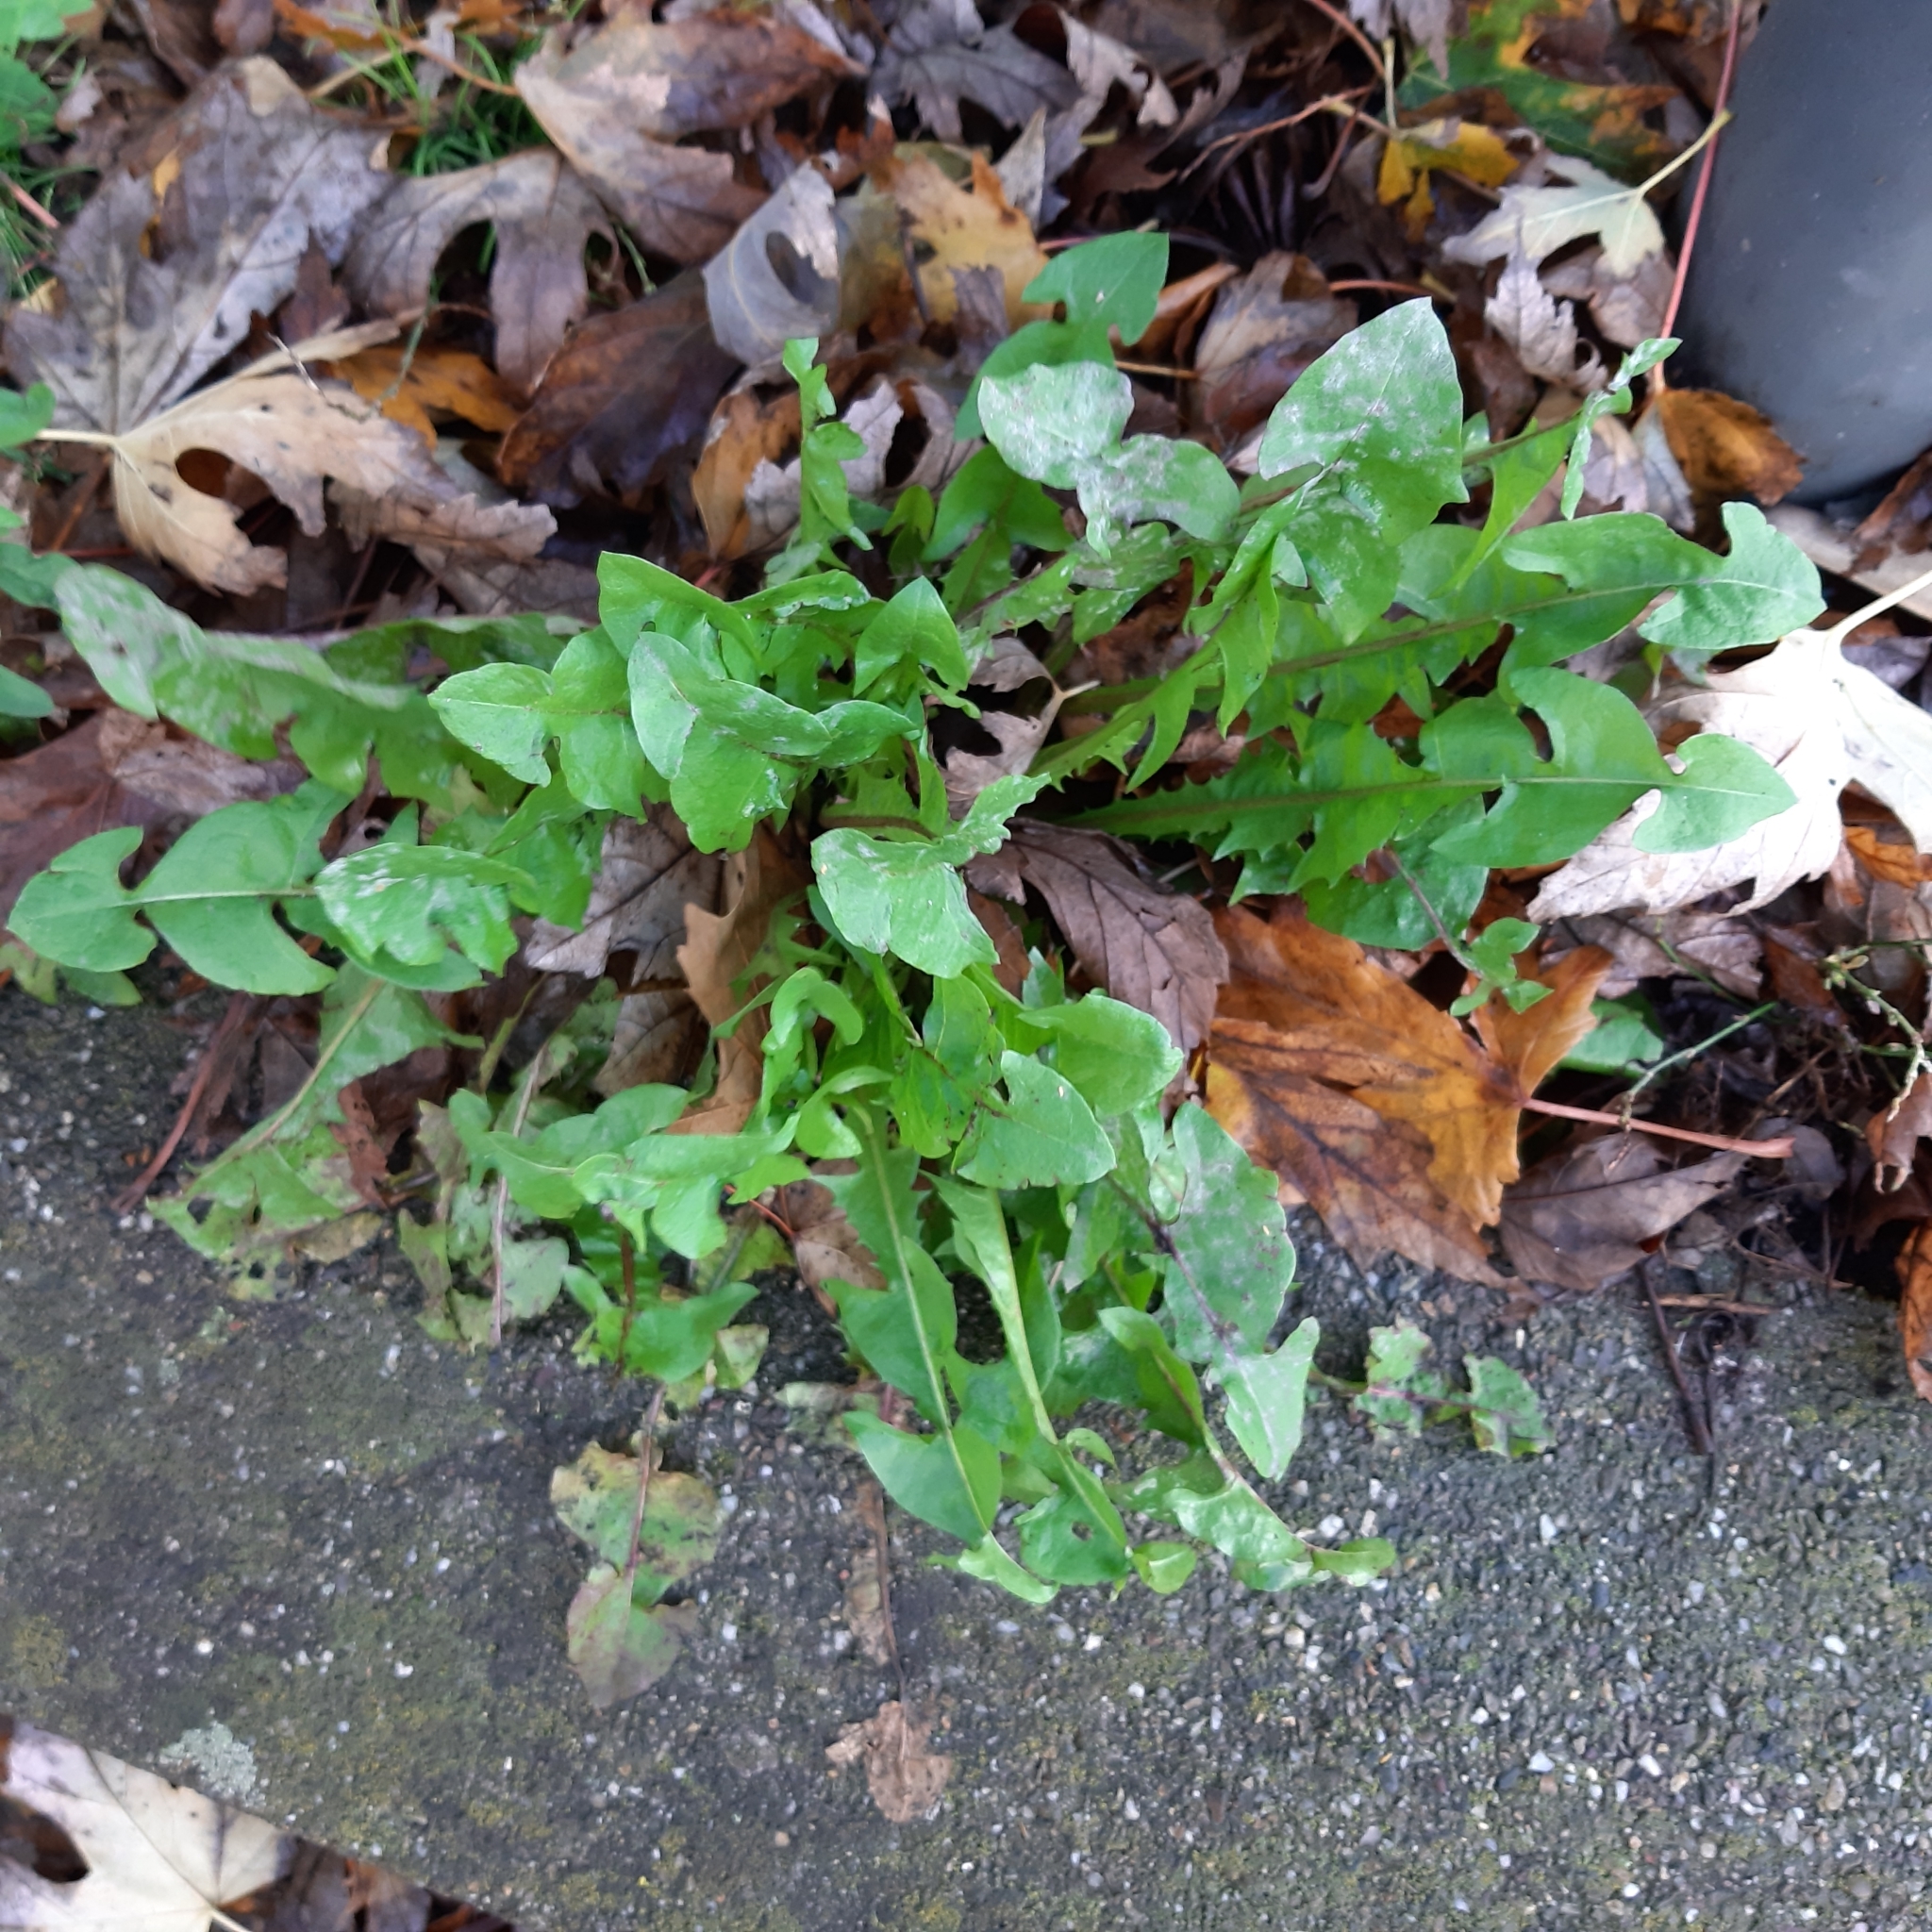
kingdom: Plantae
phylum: Tracheophyta
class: Magnoliopsida
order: Asterales
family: Asteraceae
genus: Taraxacum
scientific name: Taraxacum officinale
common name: Common dandelion
